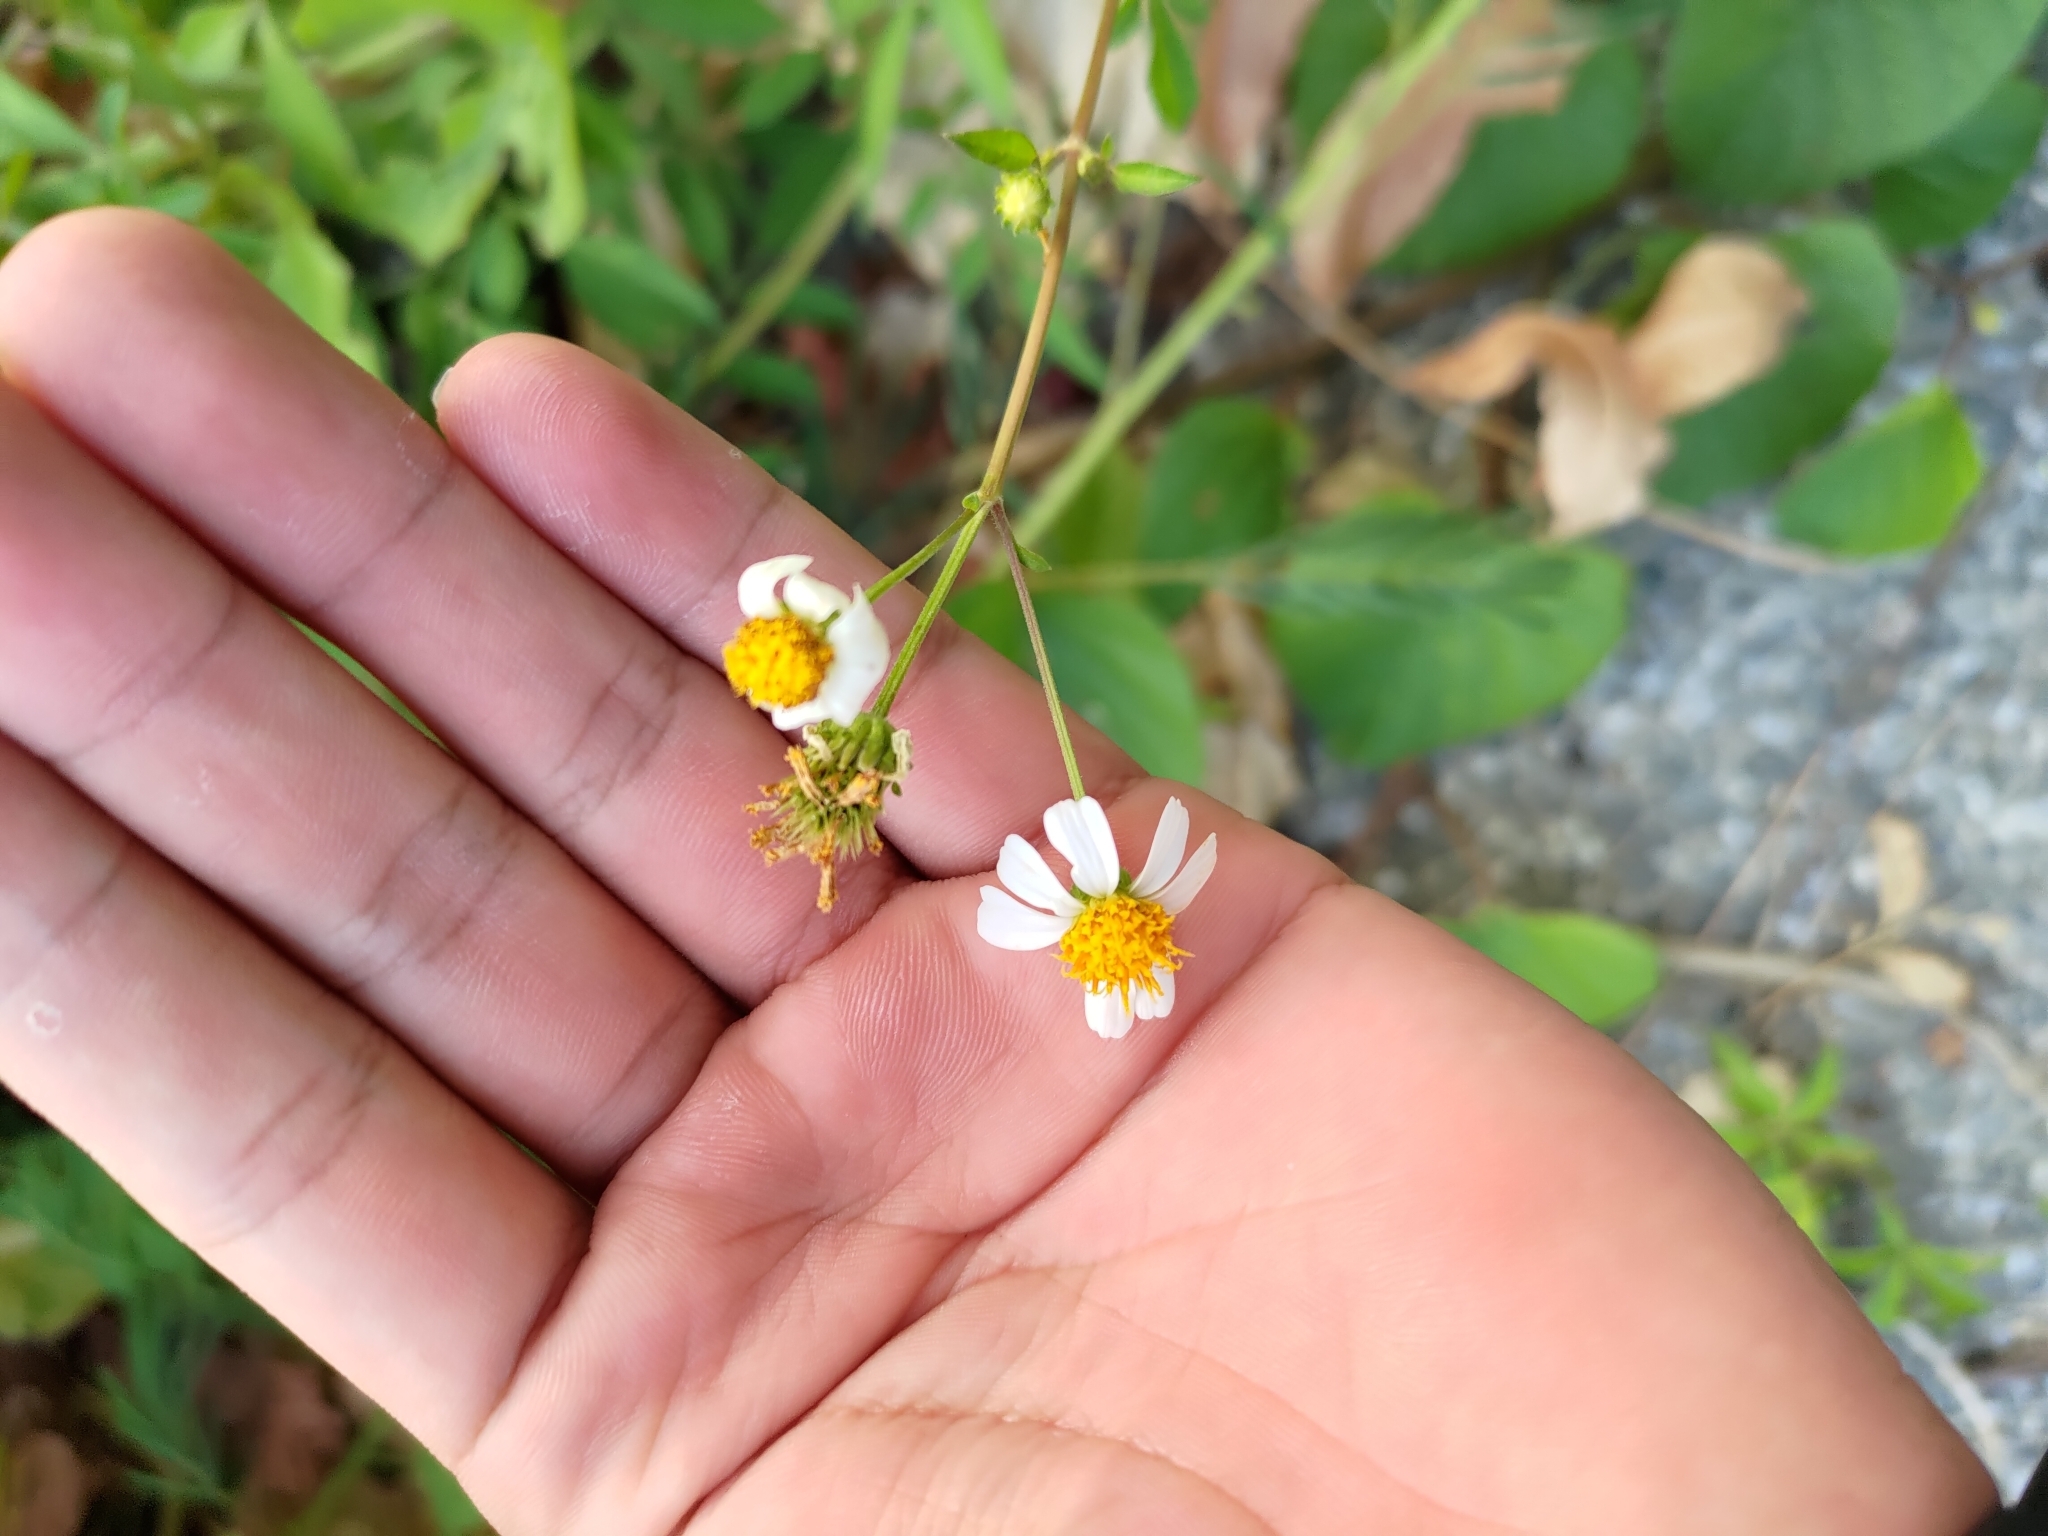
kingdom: Plantae
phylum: Tracheophyta
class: Magnoliopsida
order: Asterales
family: Asteraceae
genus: Bidens
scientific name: Bidens alba
